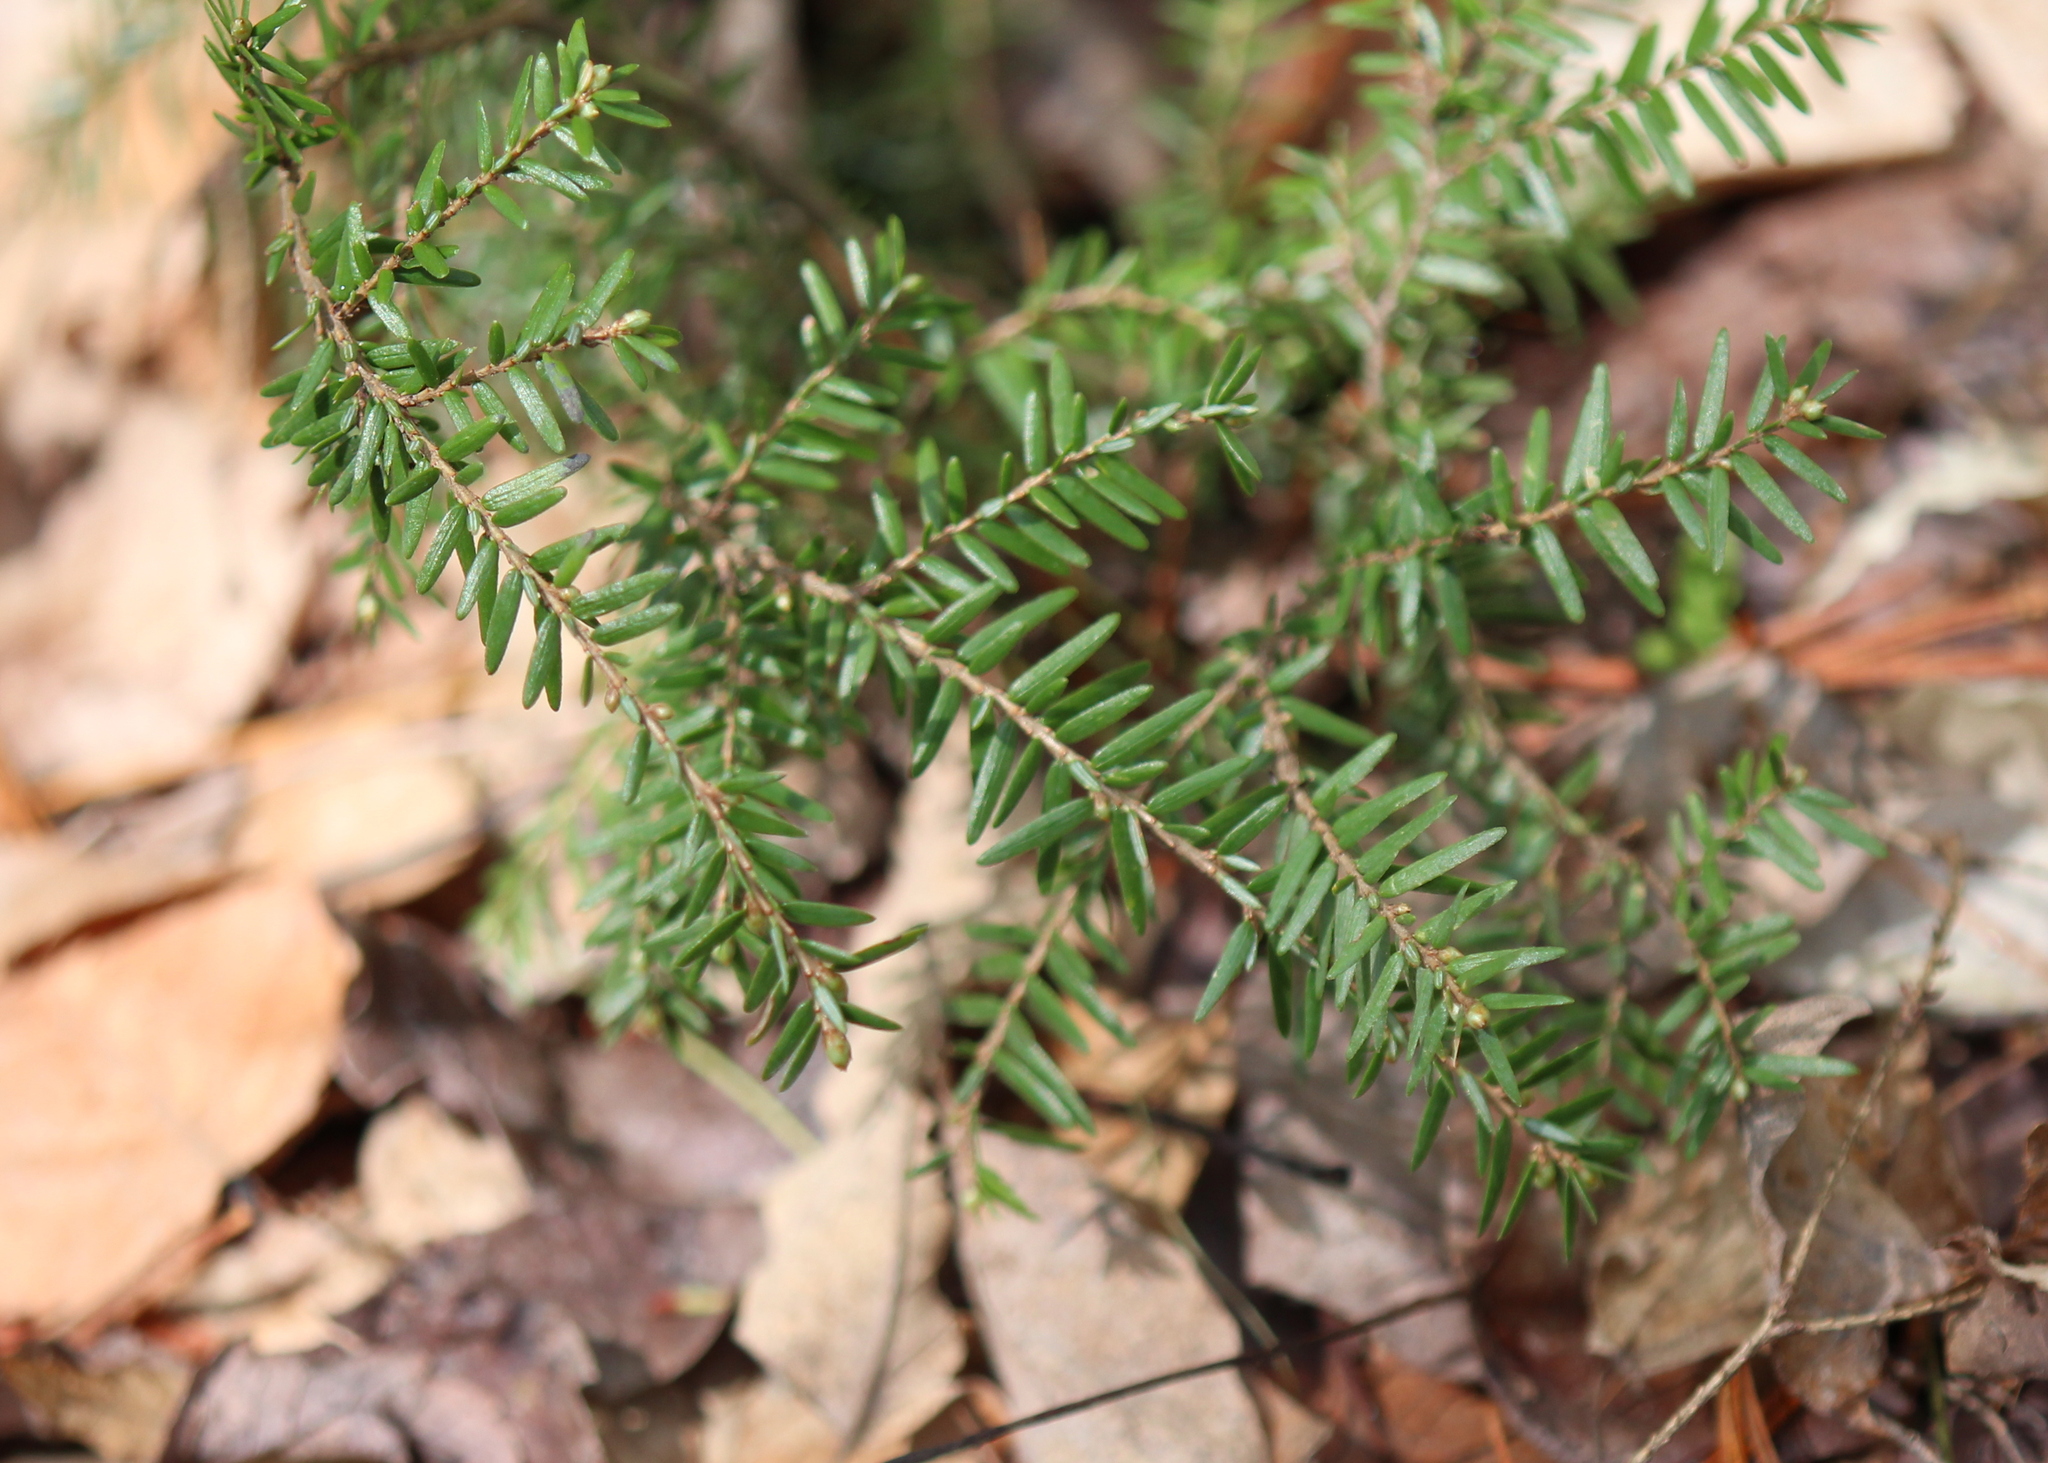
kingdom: Plantae
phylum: Tracheophyta
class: Pinopsida
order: Pinales
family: Pinaceae
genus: Tsuga
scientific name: Tsuga canadensis
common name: Eastern hemlock
